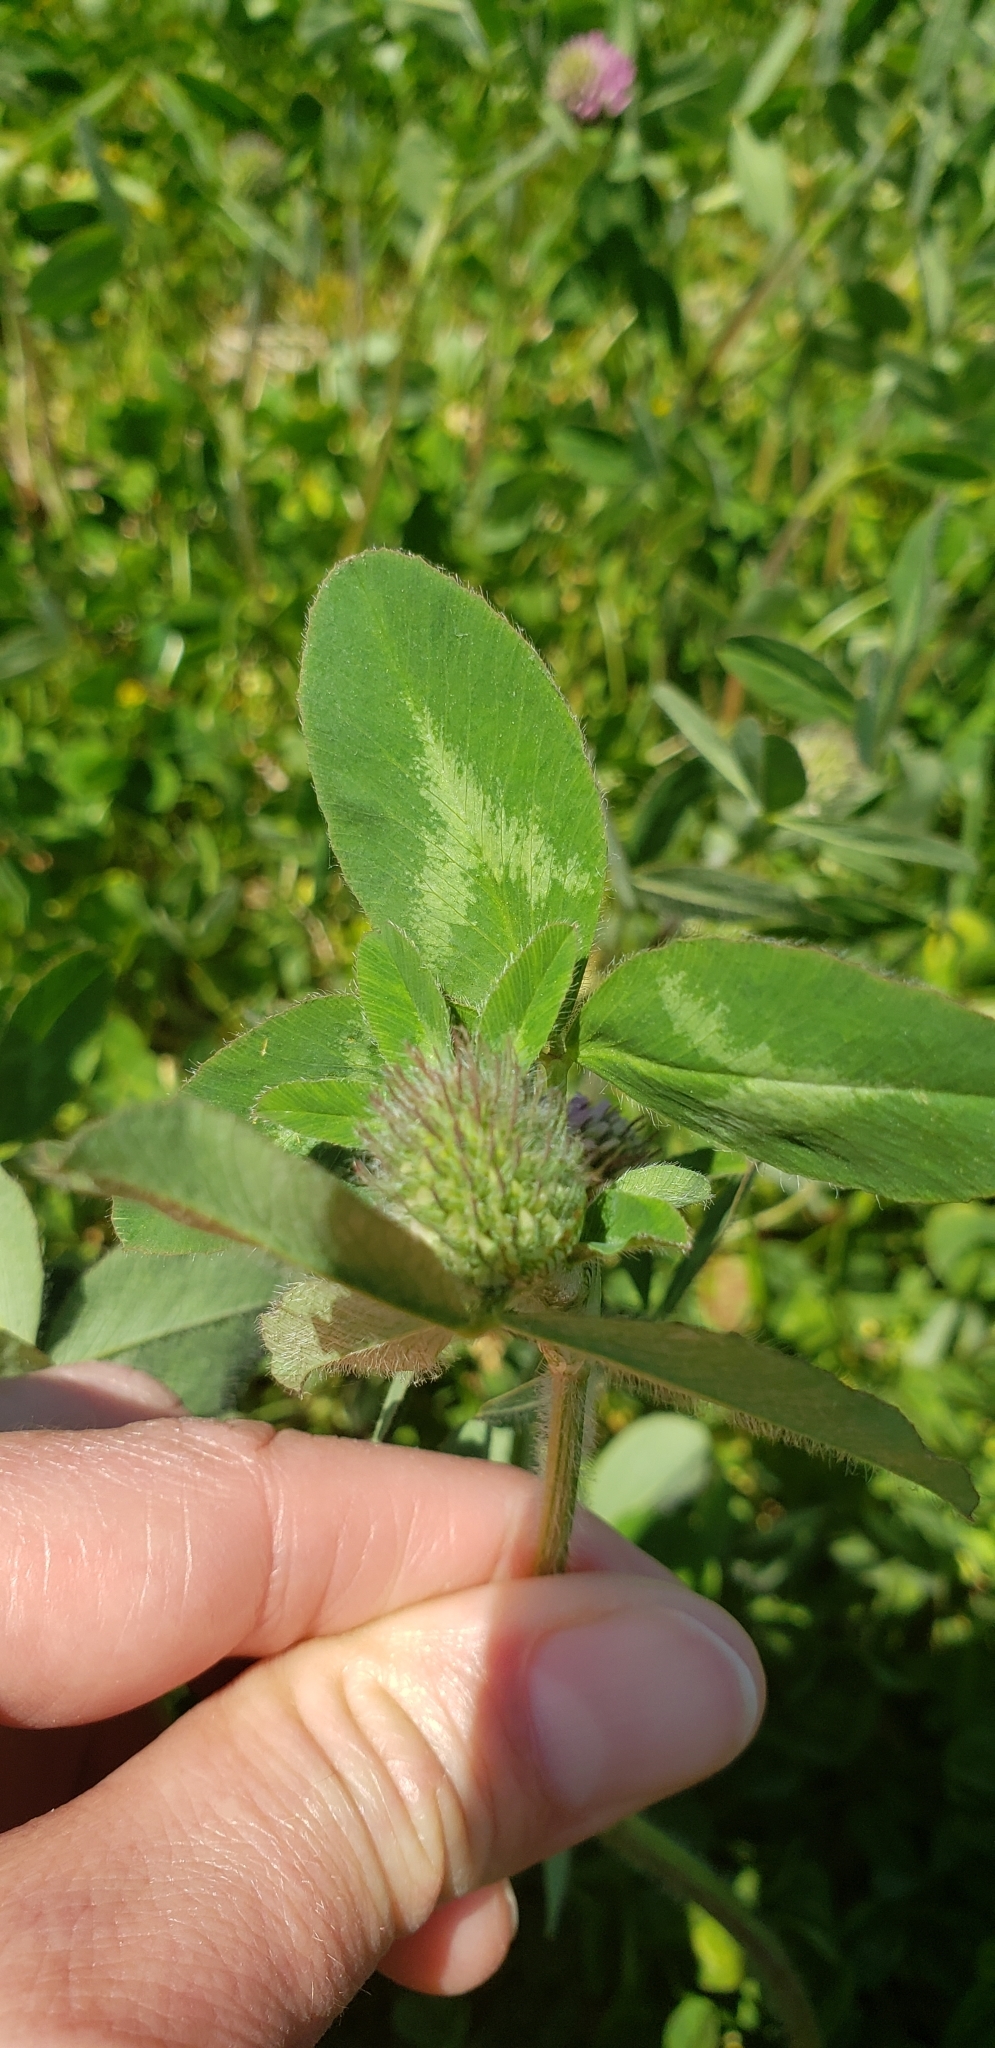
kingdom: Plantae
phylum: Tracheophyta
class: Magnoliopsida
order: Fabales
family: Fabaceae
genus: Trifolium
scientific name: Trifolium pratense
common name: Red clover
